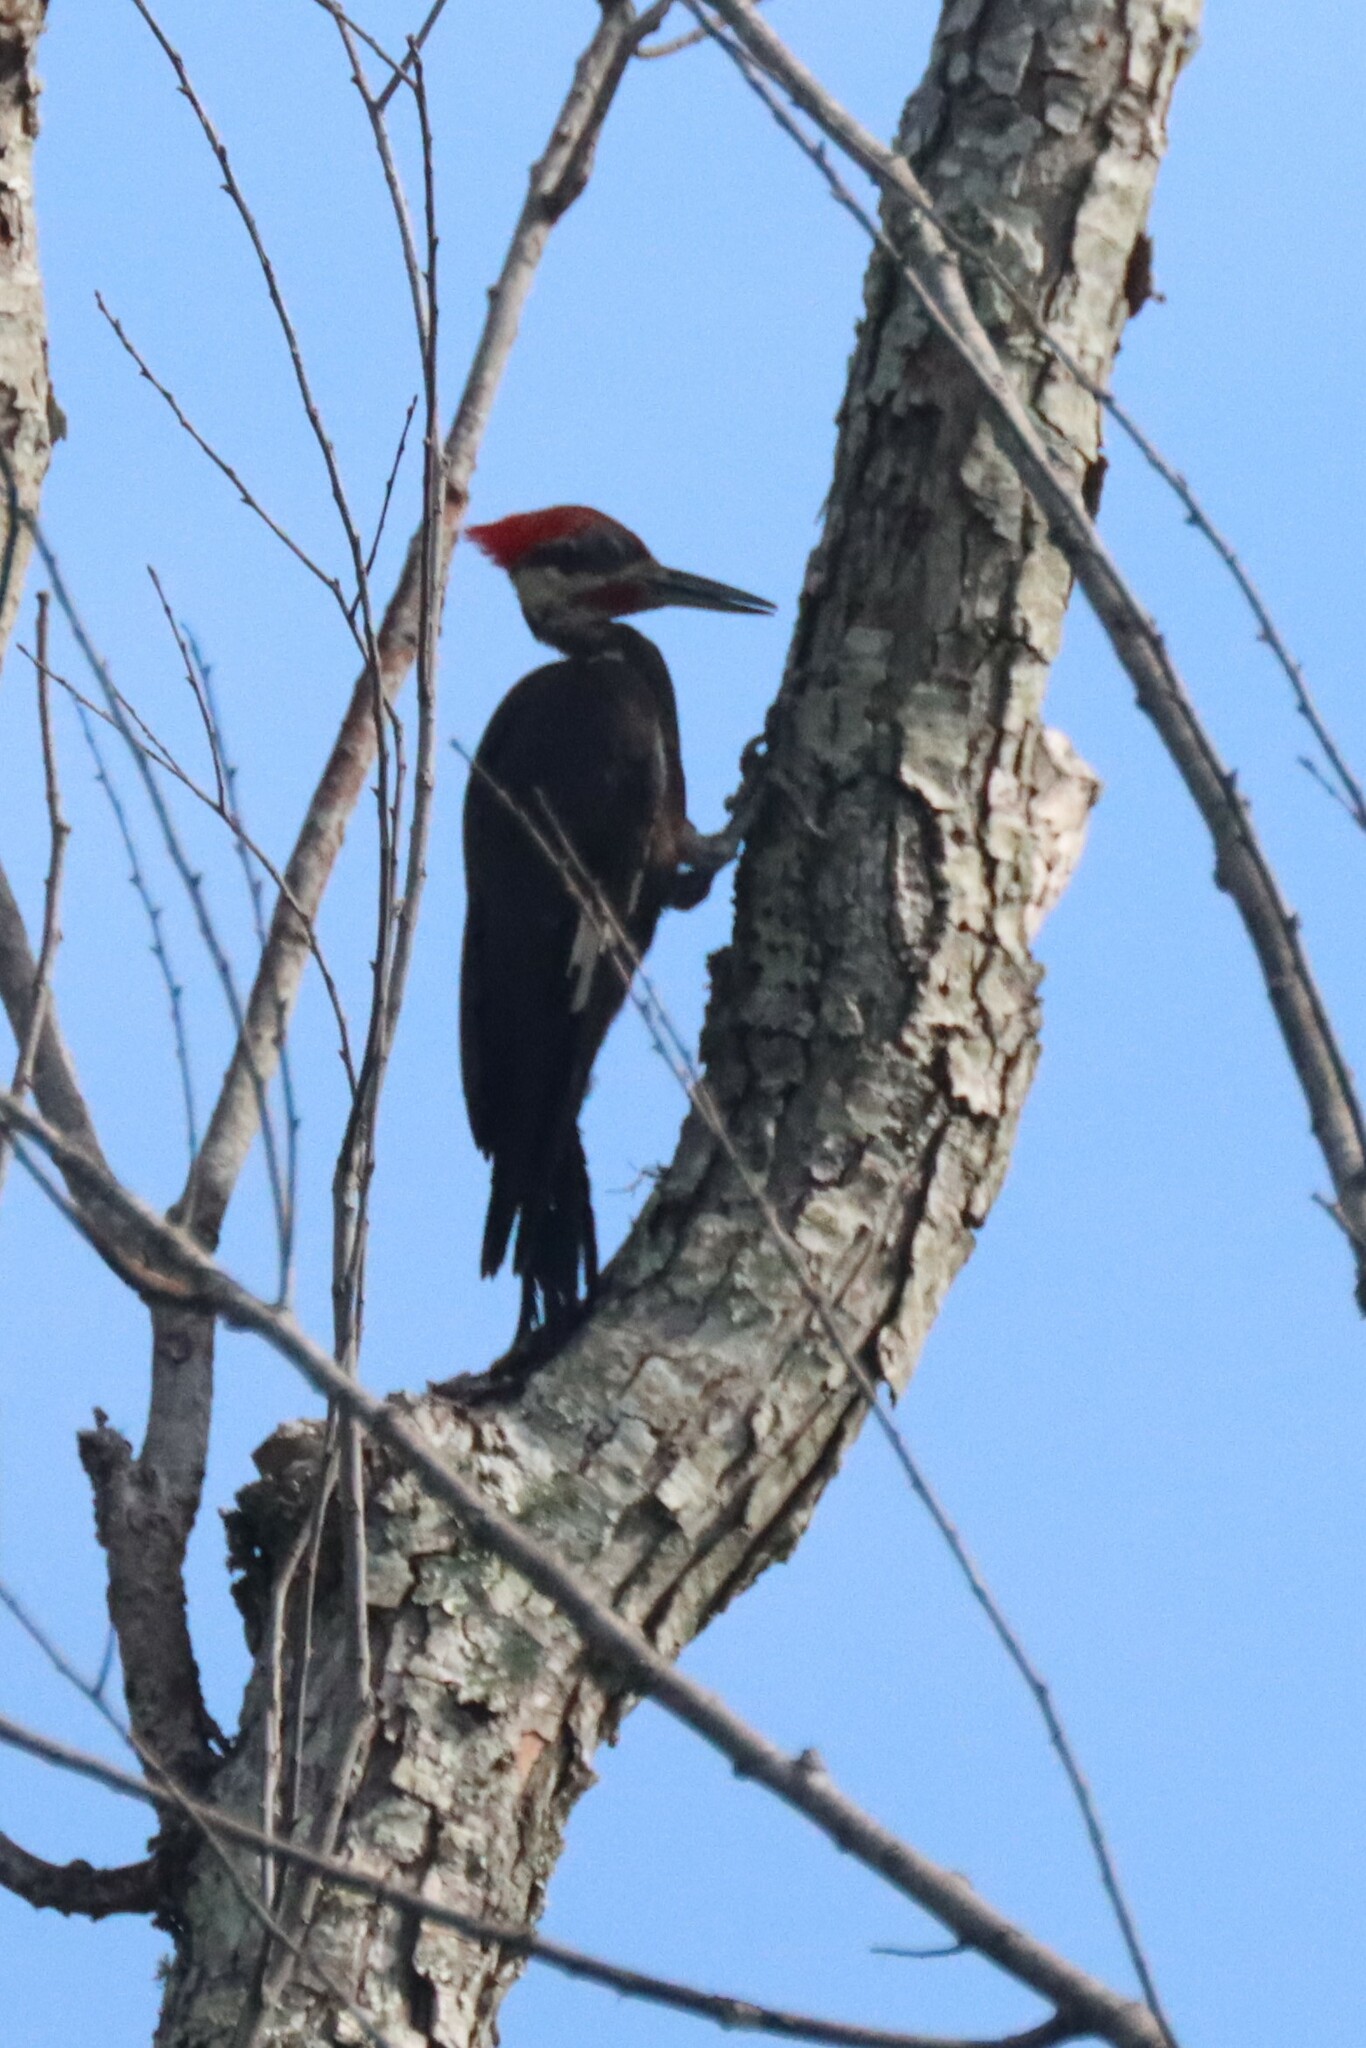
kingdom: Animalia
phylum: Chordata
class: Aves
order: Piciformes
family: Picidae
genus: Dryocopus
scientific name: Dryocopus pileatus
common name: Pileated woodpecker
